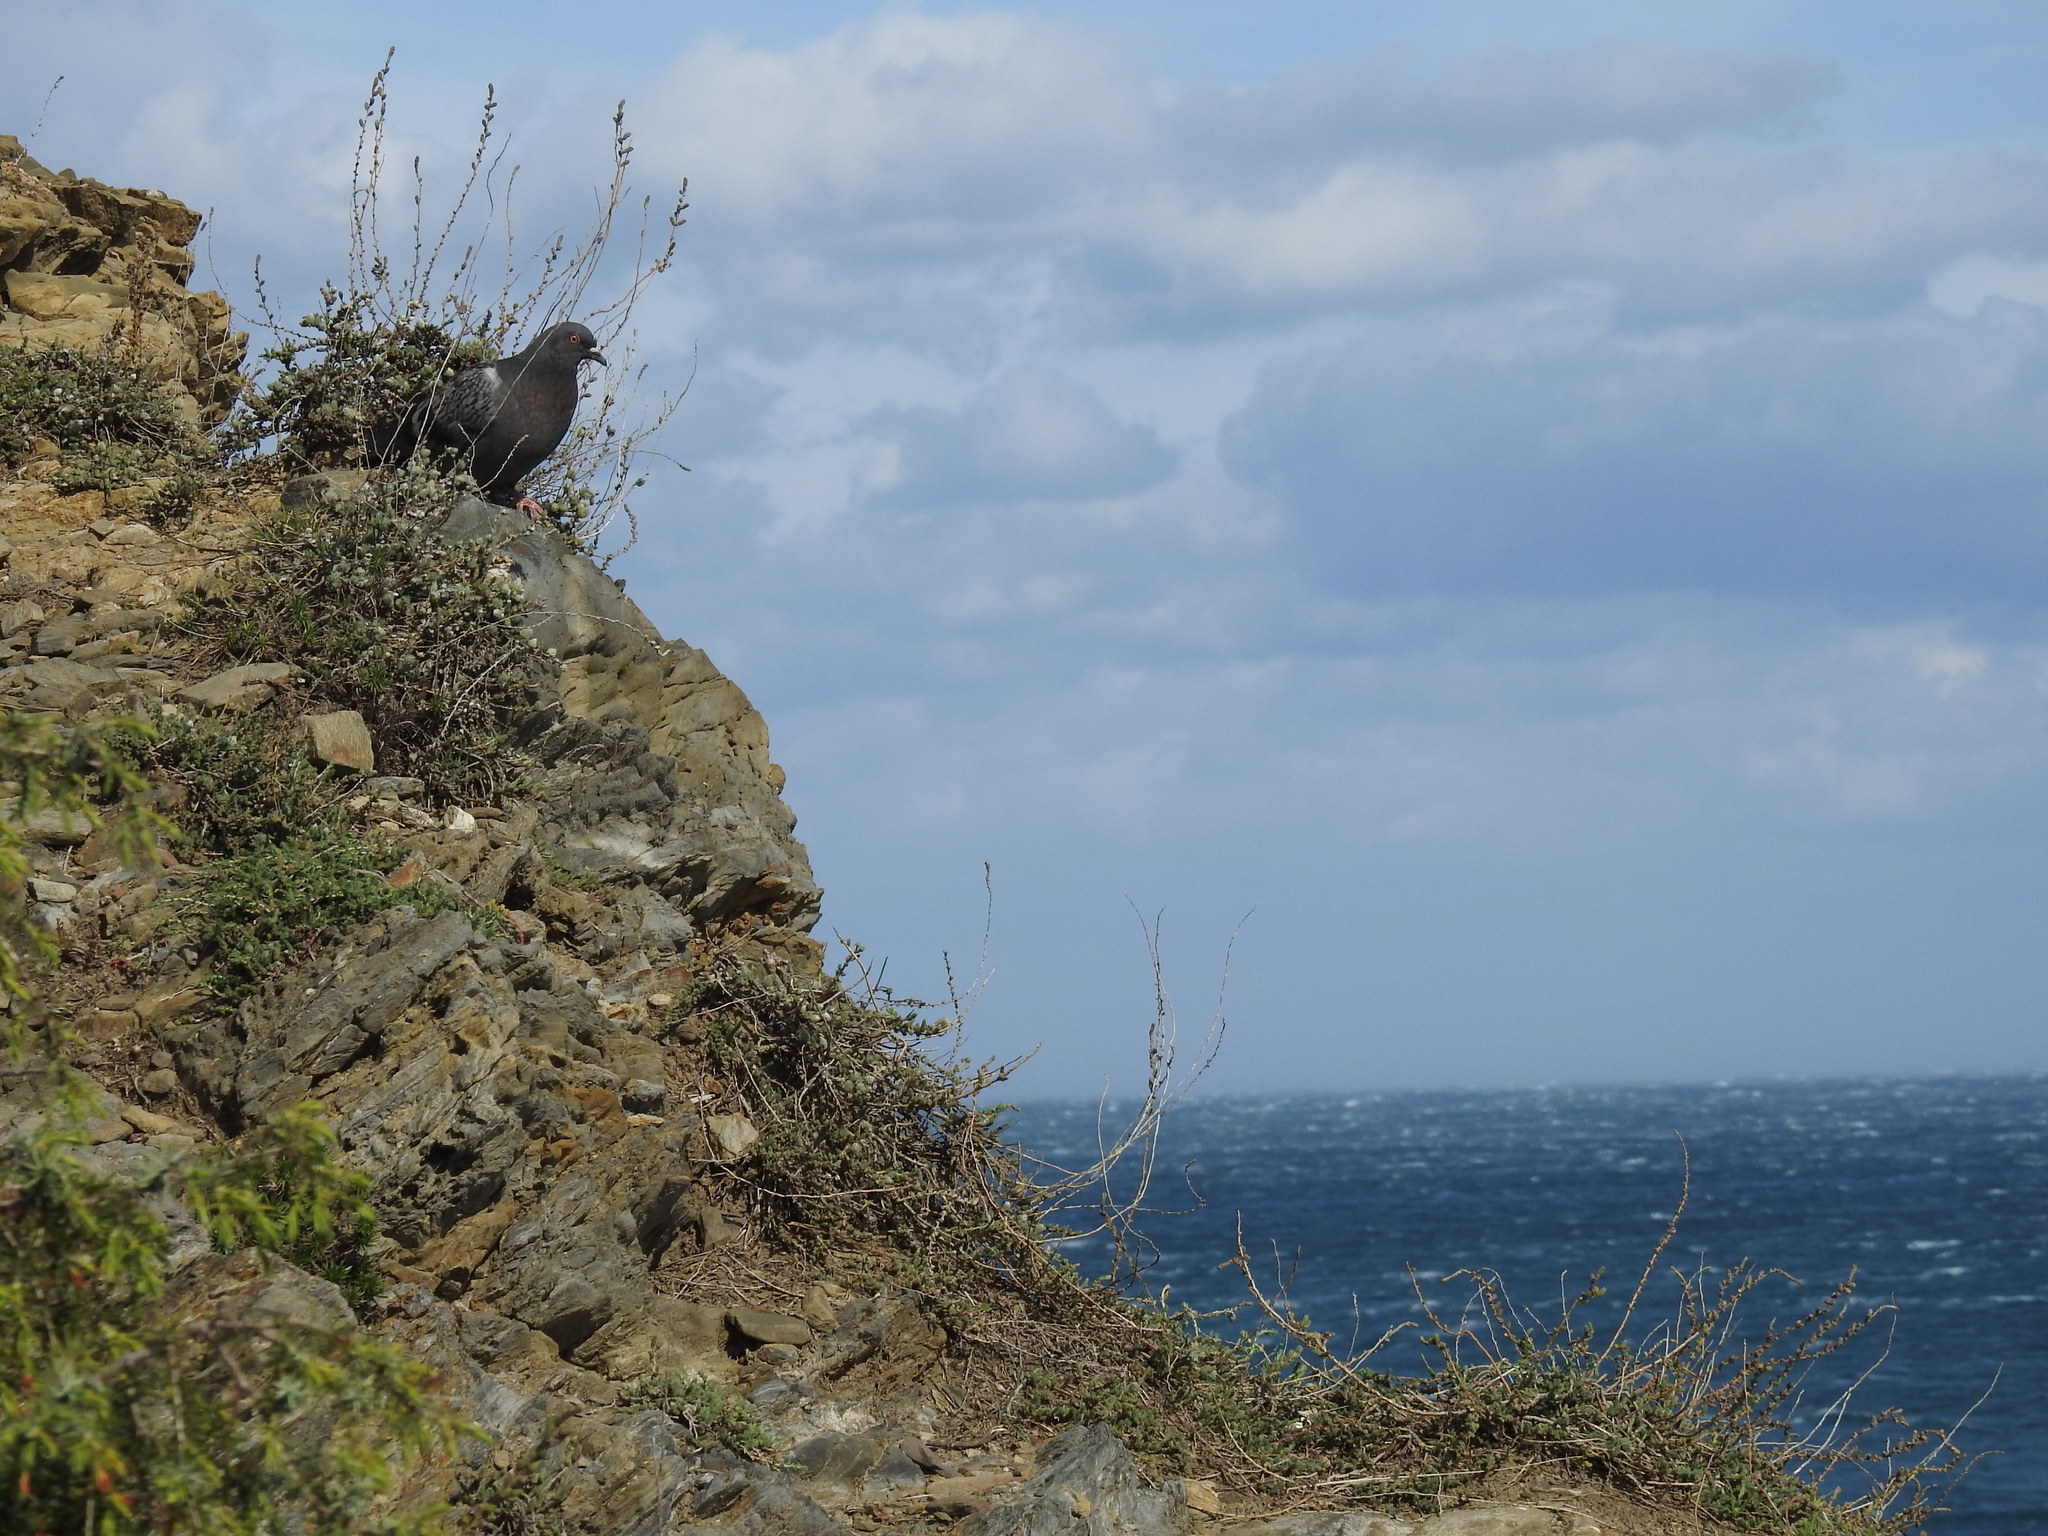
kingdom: Animalia
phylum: Chordata
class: Aves
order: Columbiformes
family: Columbidae
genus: Columba
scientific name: Columba livia
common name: Rock pigeon
